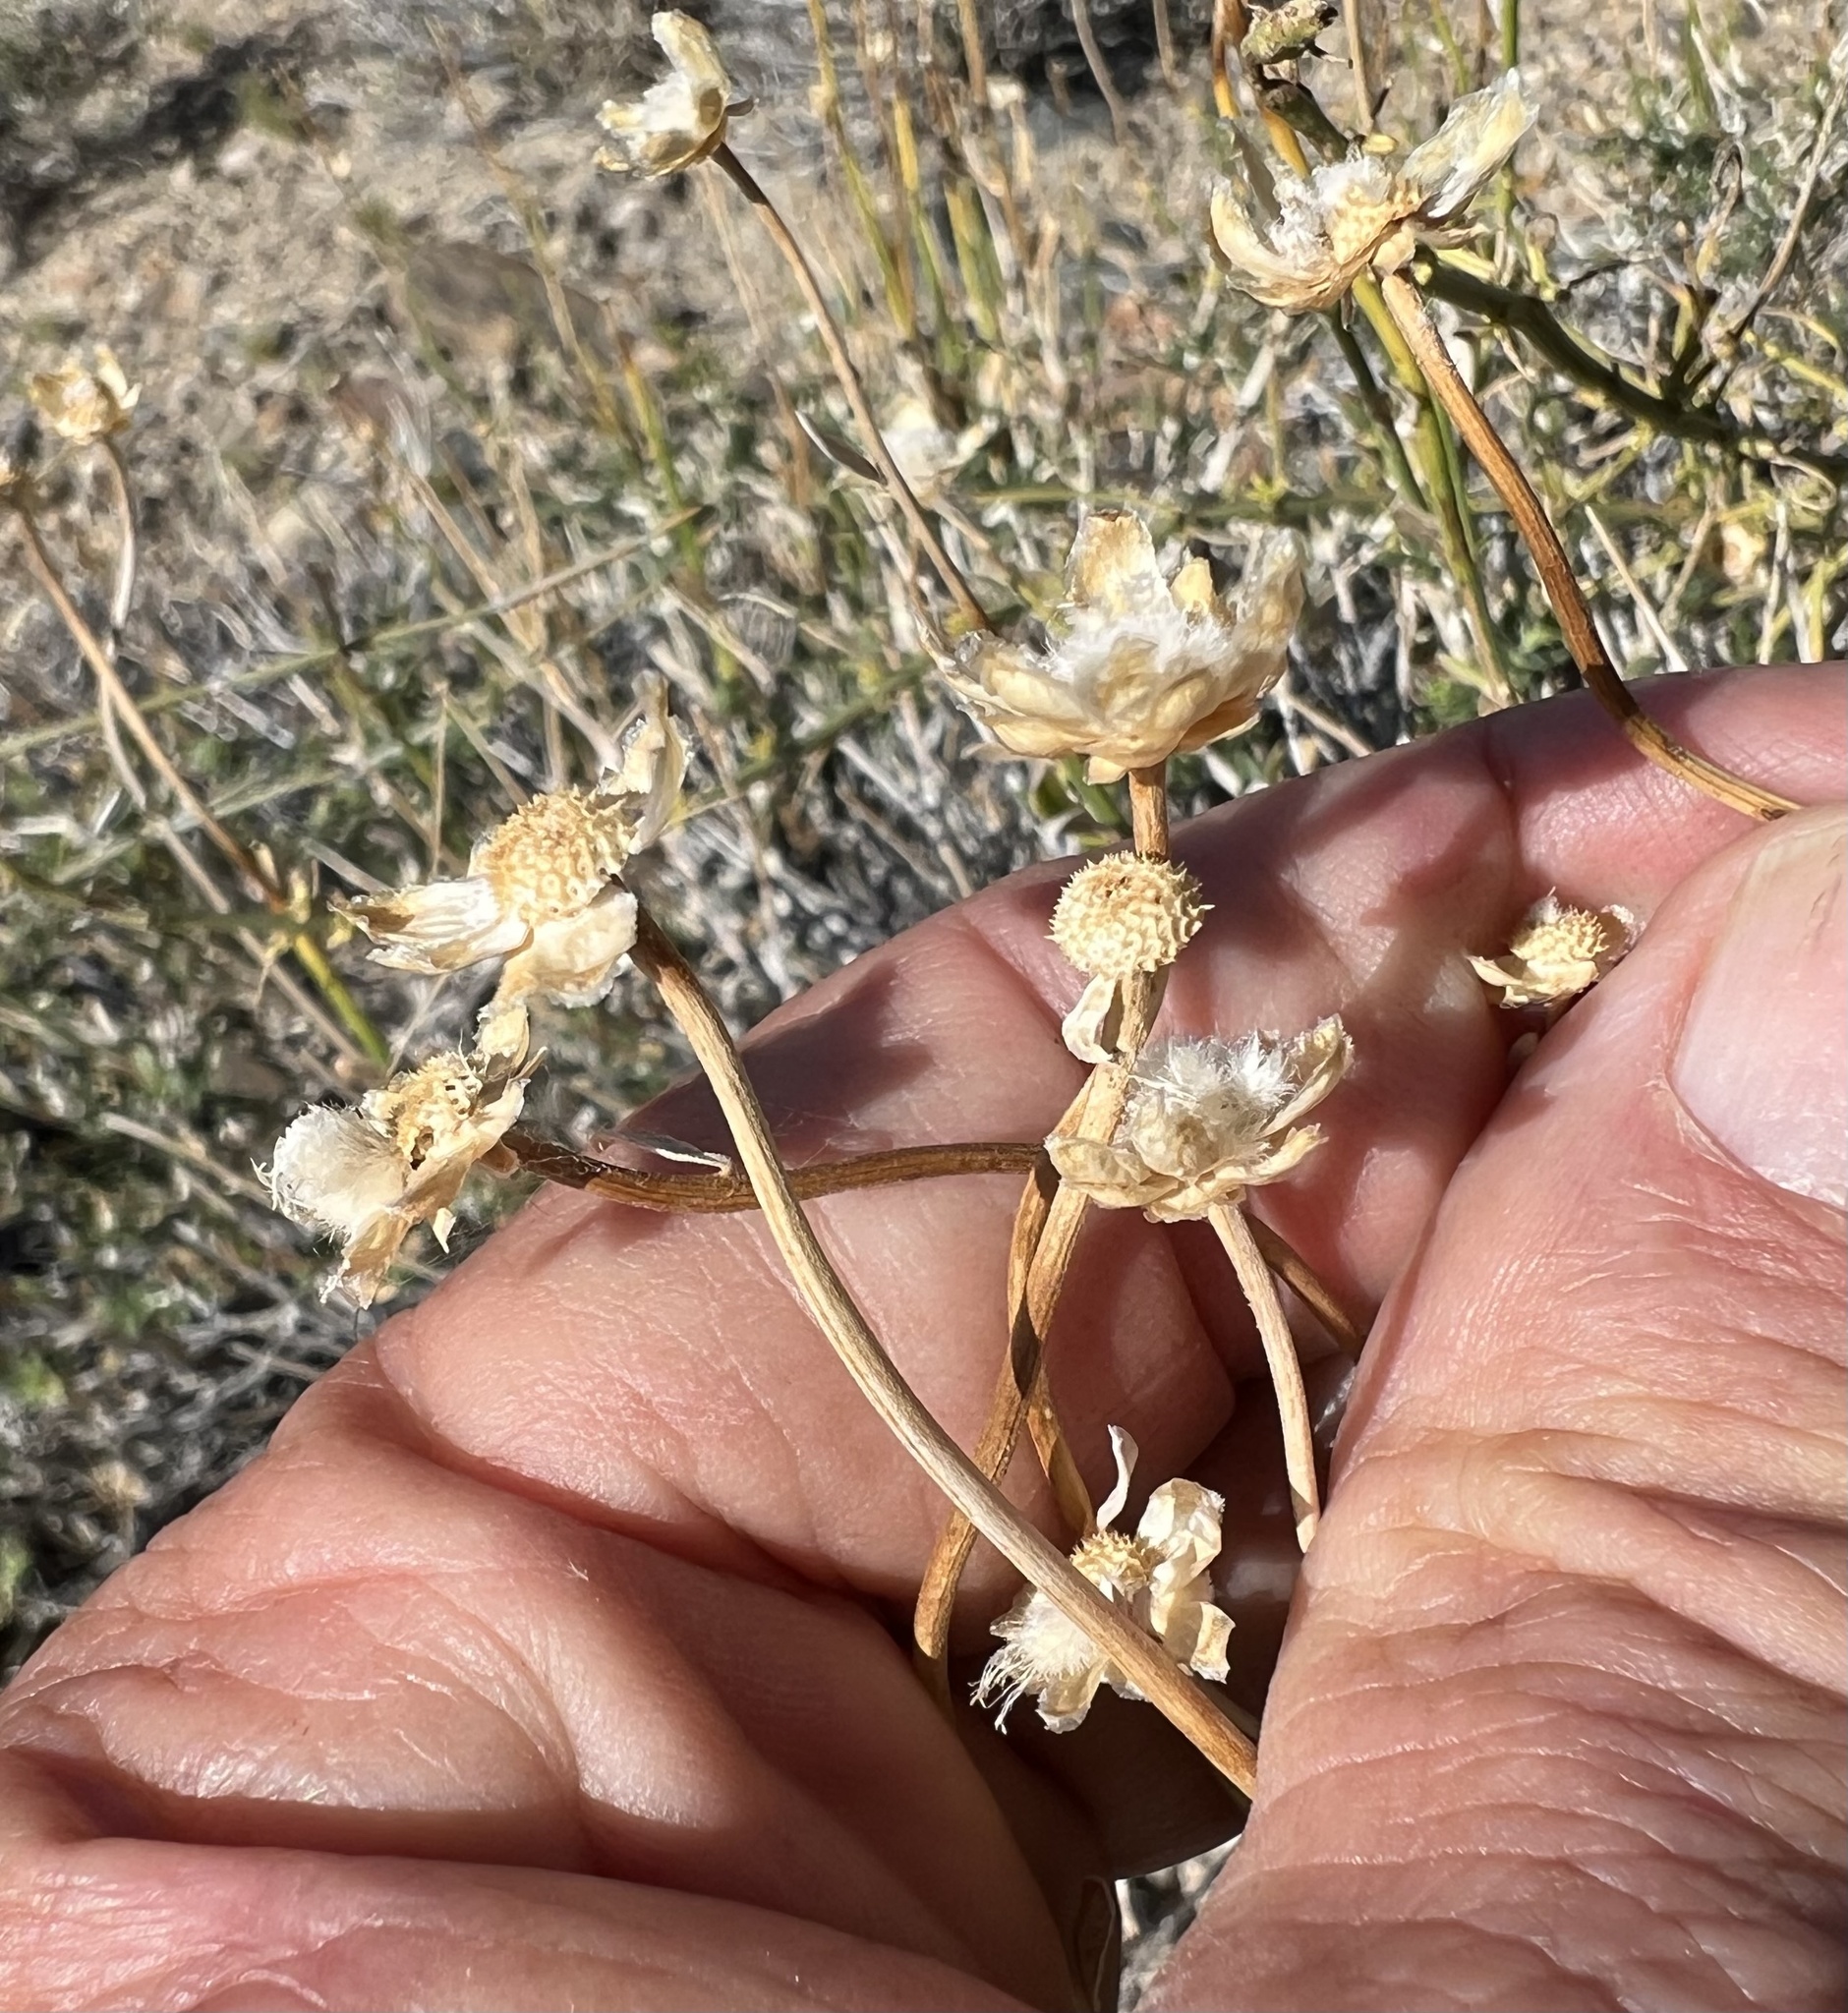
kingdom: Plantae
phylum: Tracheophyta
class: Magnoliopsida
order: Asterales
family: Asteraceae
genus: Acamptopappus
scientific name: Acamptopappus shockleyi
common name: Shockley's goldenhead
